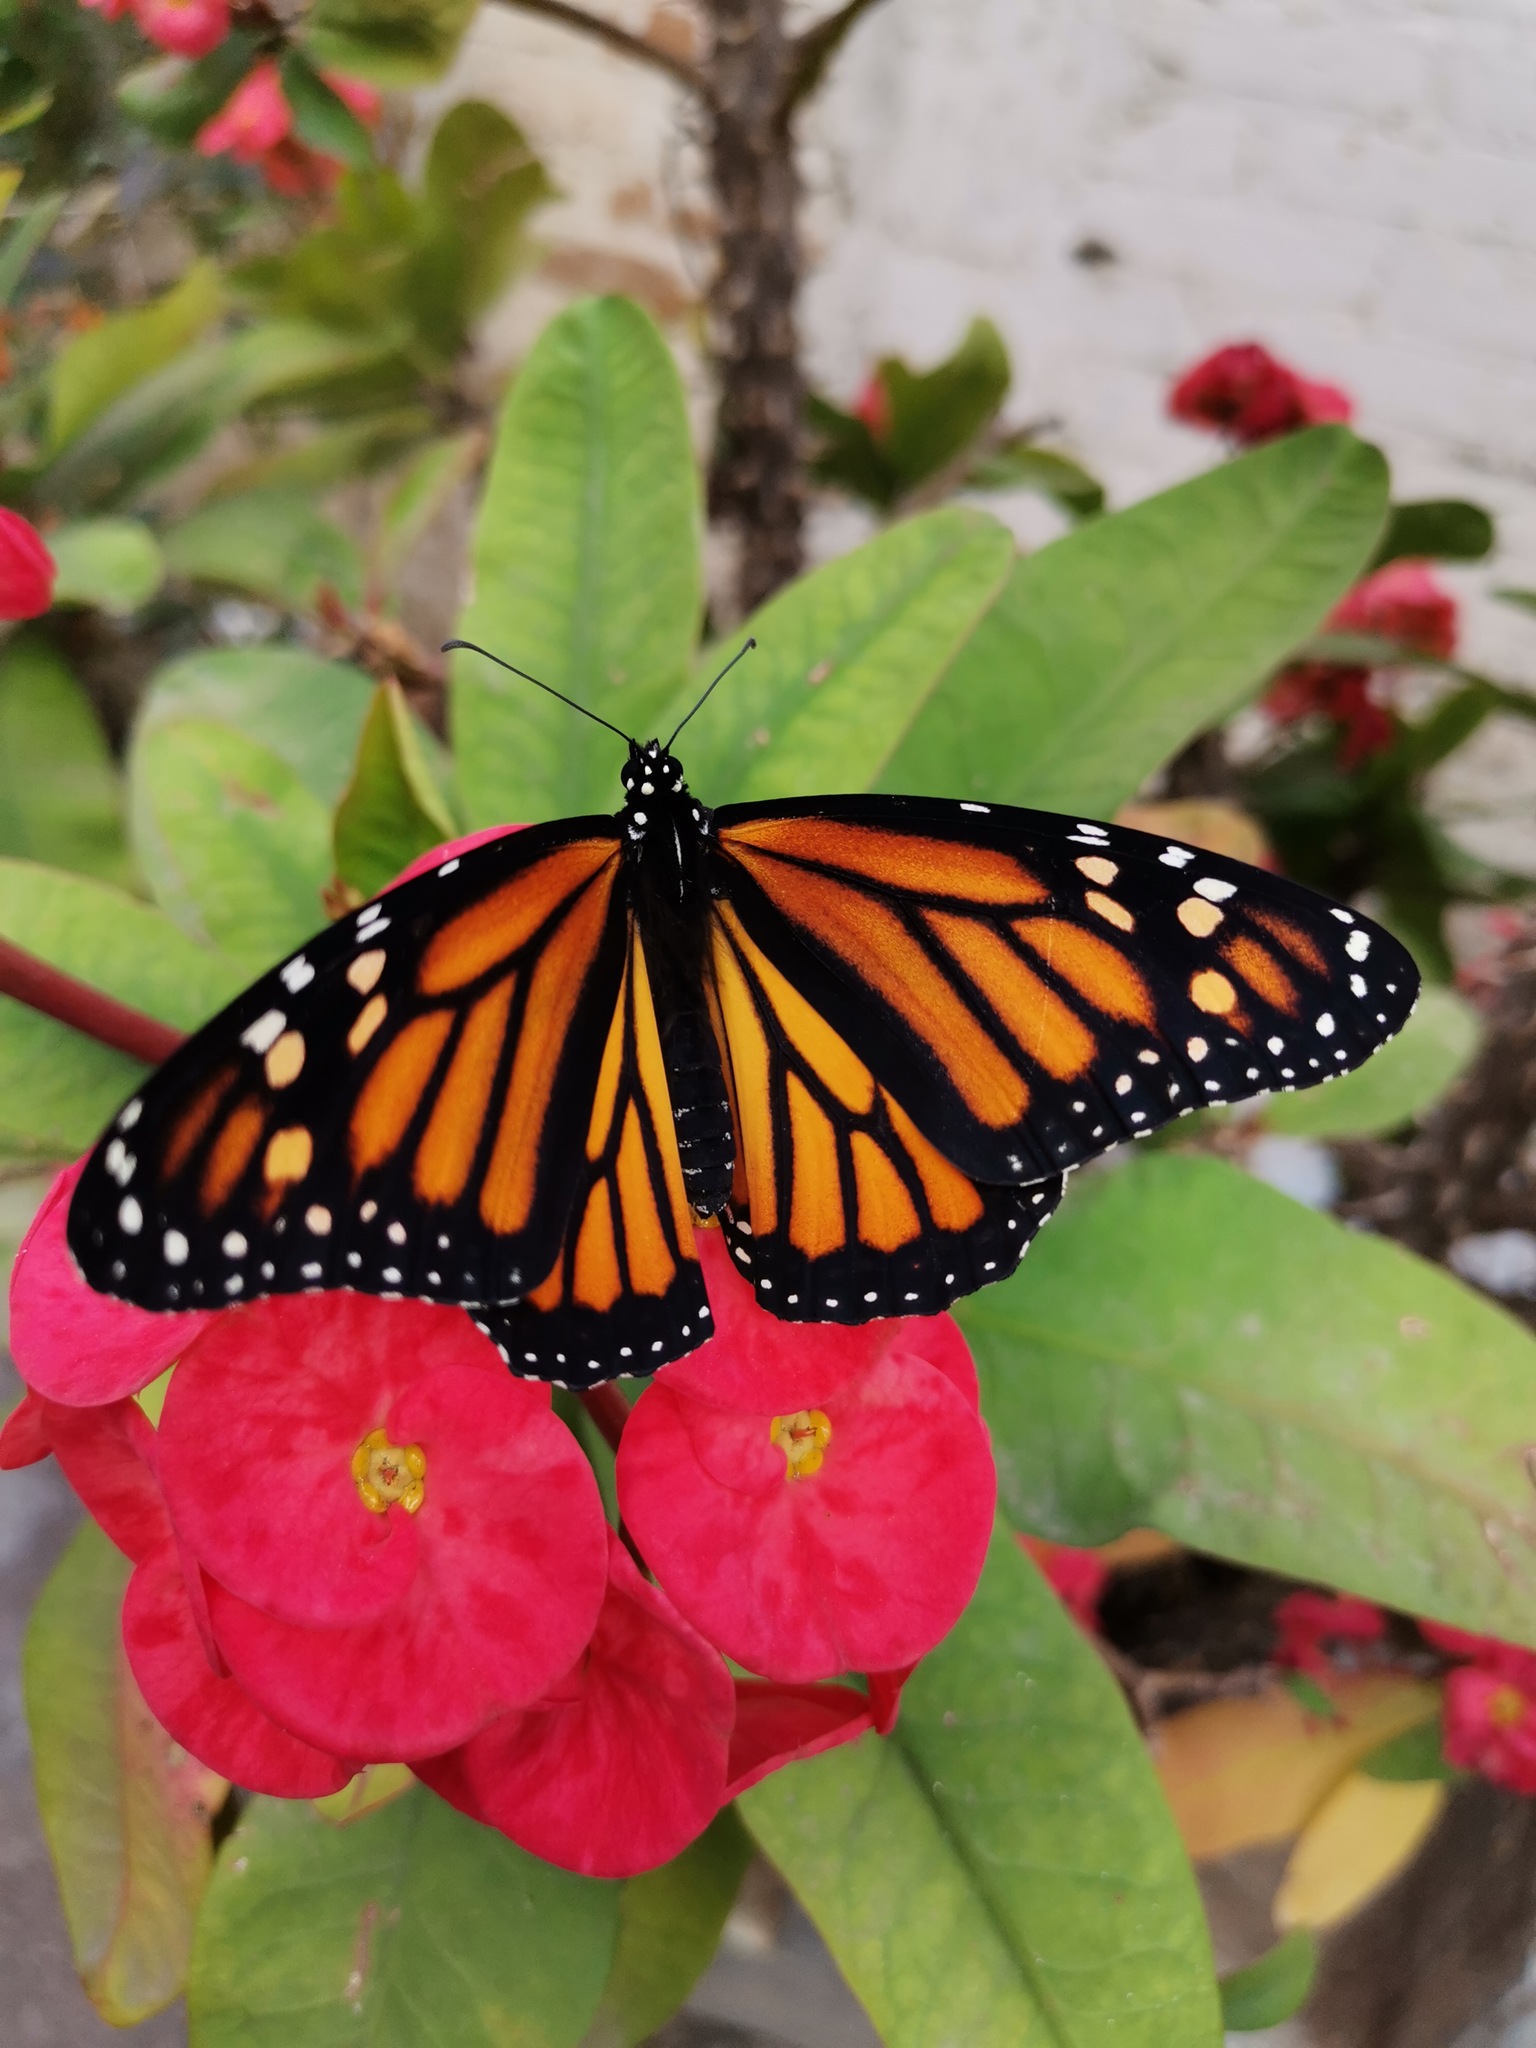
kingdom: Animalia
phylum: Arthropoda
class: Insecta
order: Lepidoptera
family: Nymphalidae
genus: Danaus
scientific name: Danaus plexippus
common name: Monarch
